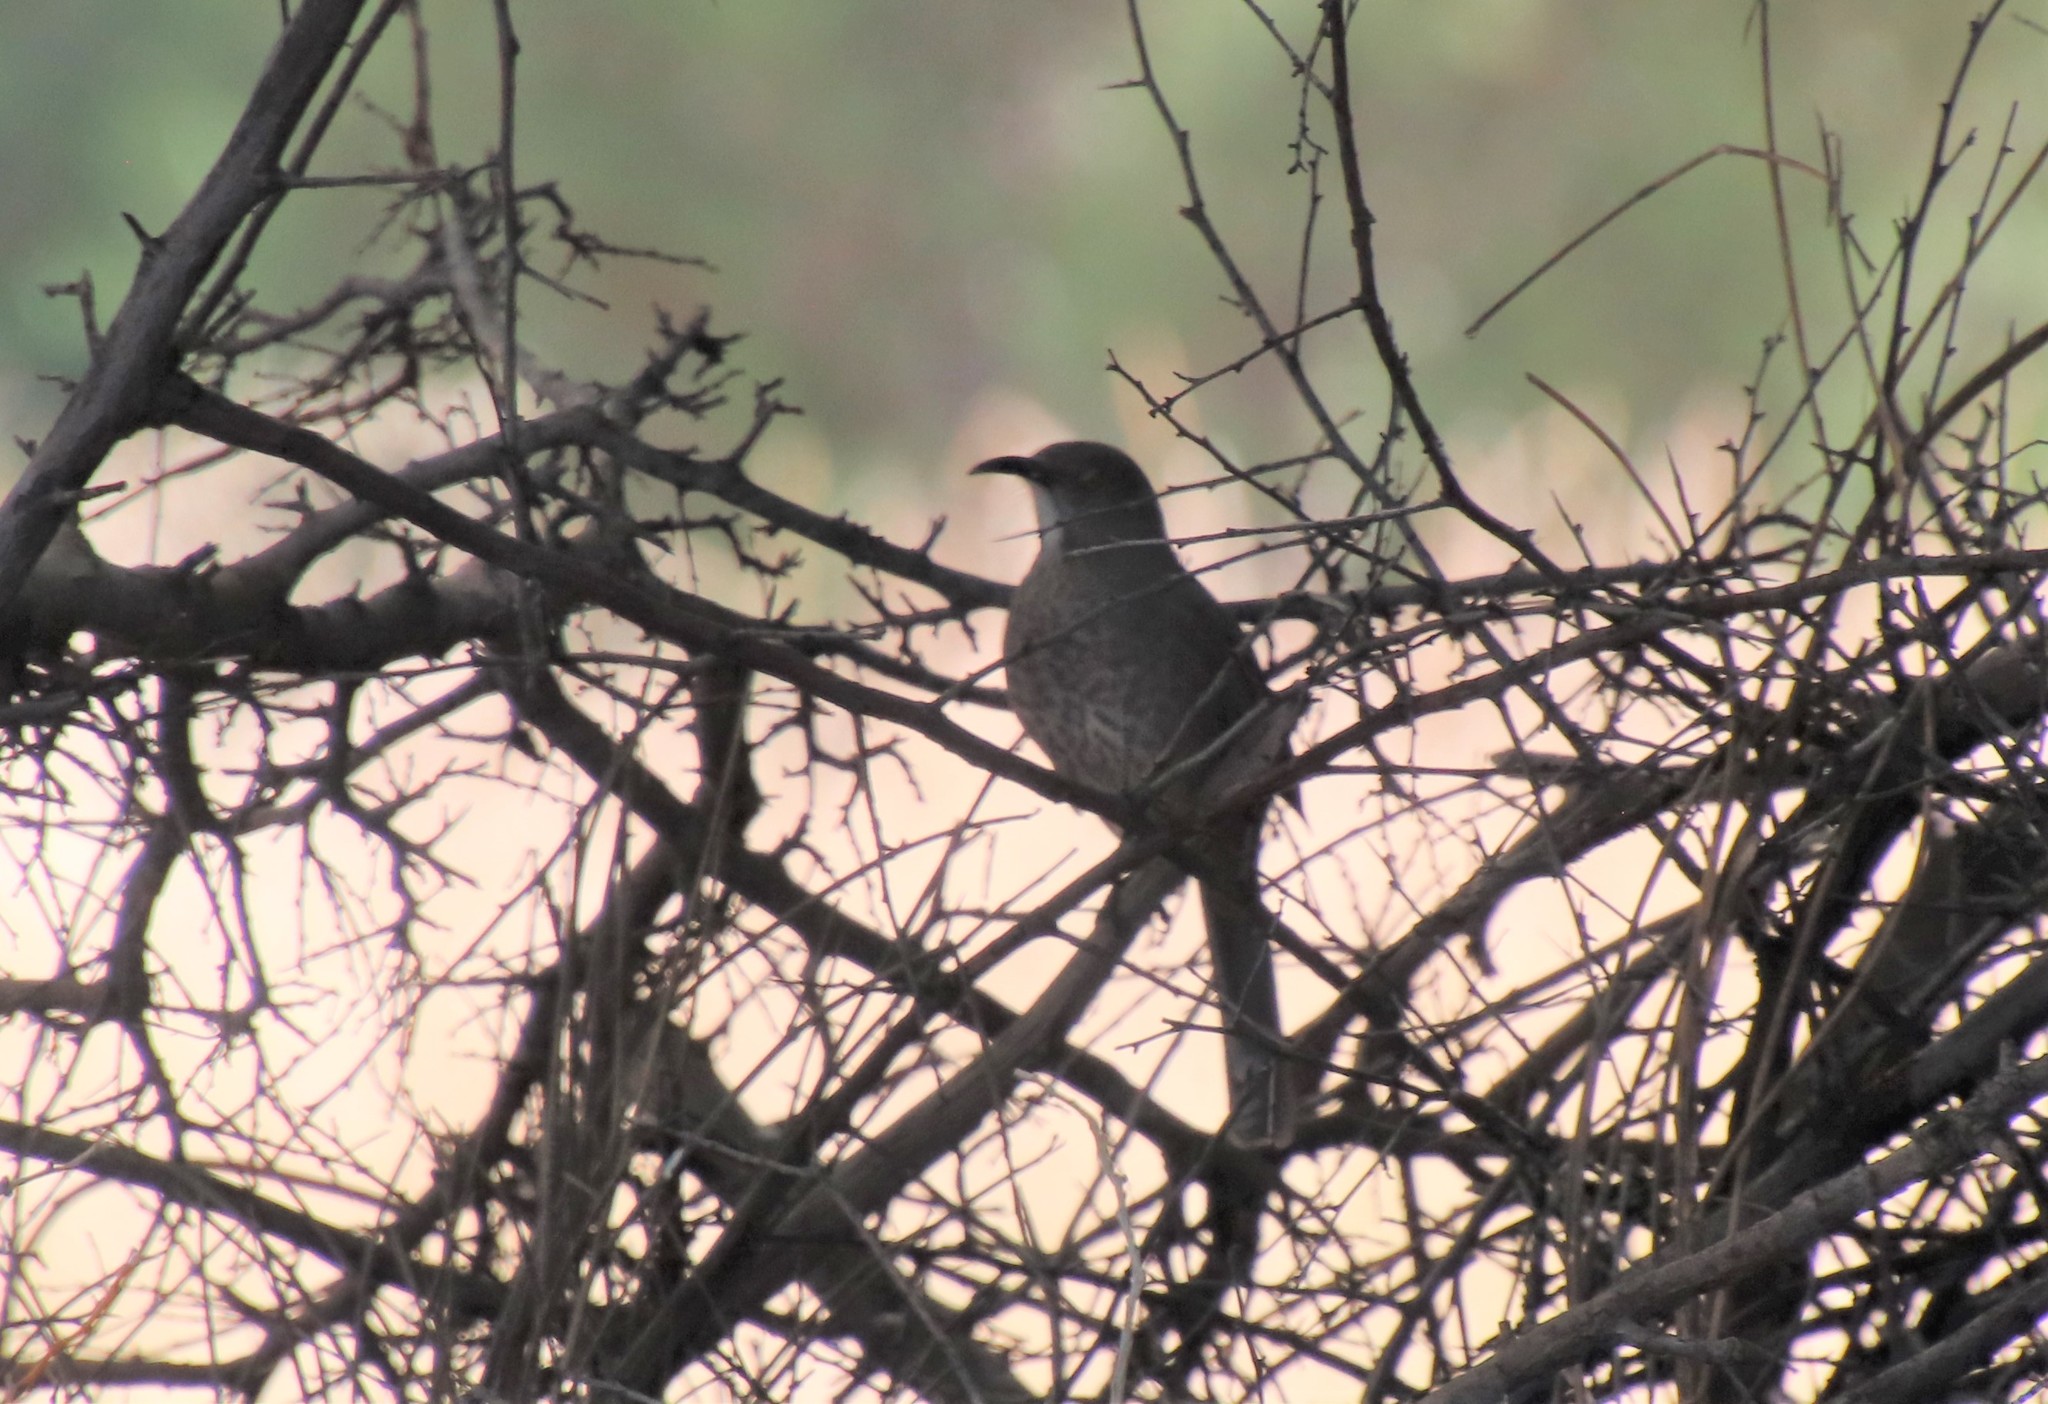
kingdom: Animalia
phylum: Chordata
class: Aves
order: Passeriformes
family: Mimidae
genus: Toxostoma
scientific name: Toxostoma curvirostre
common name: Curve-billed thrasher
